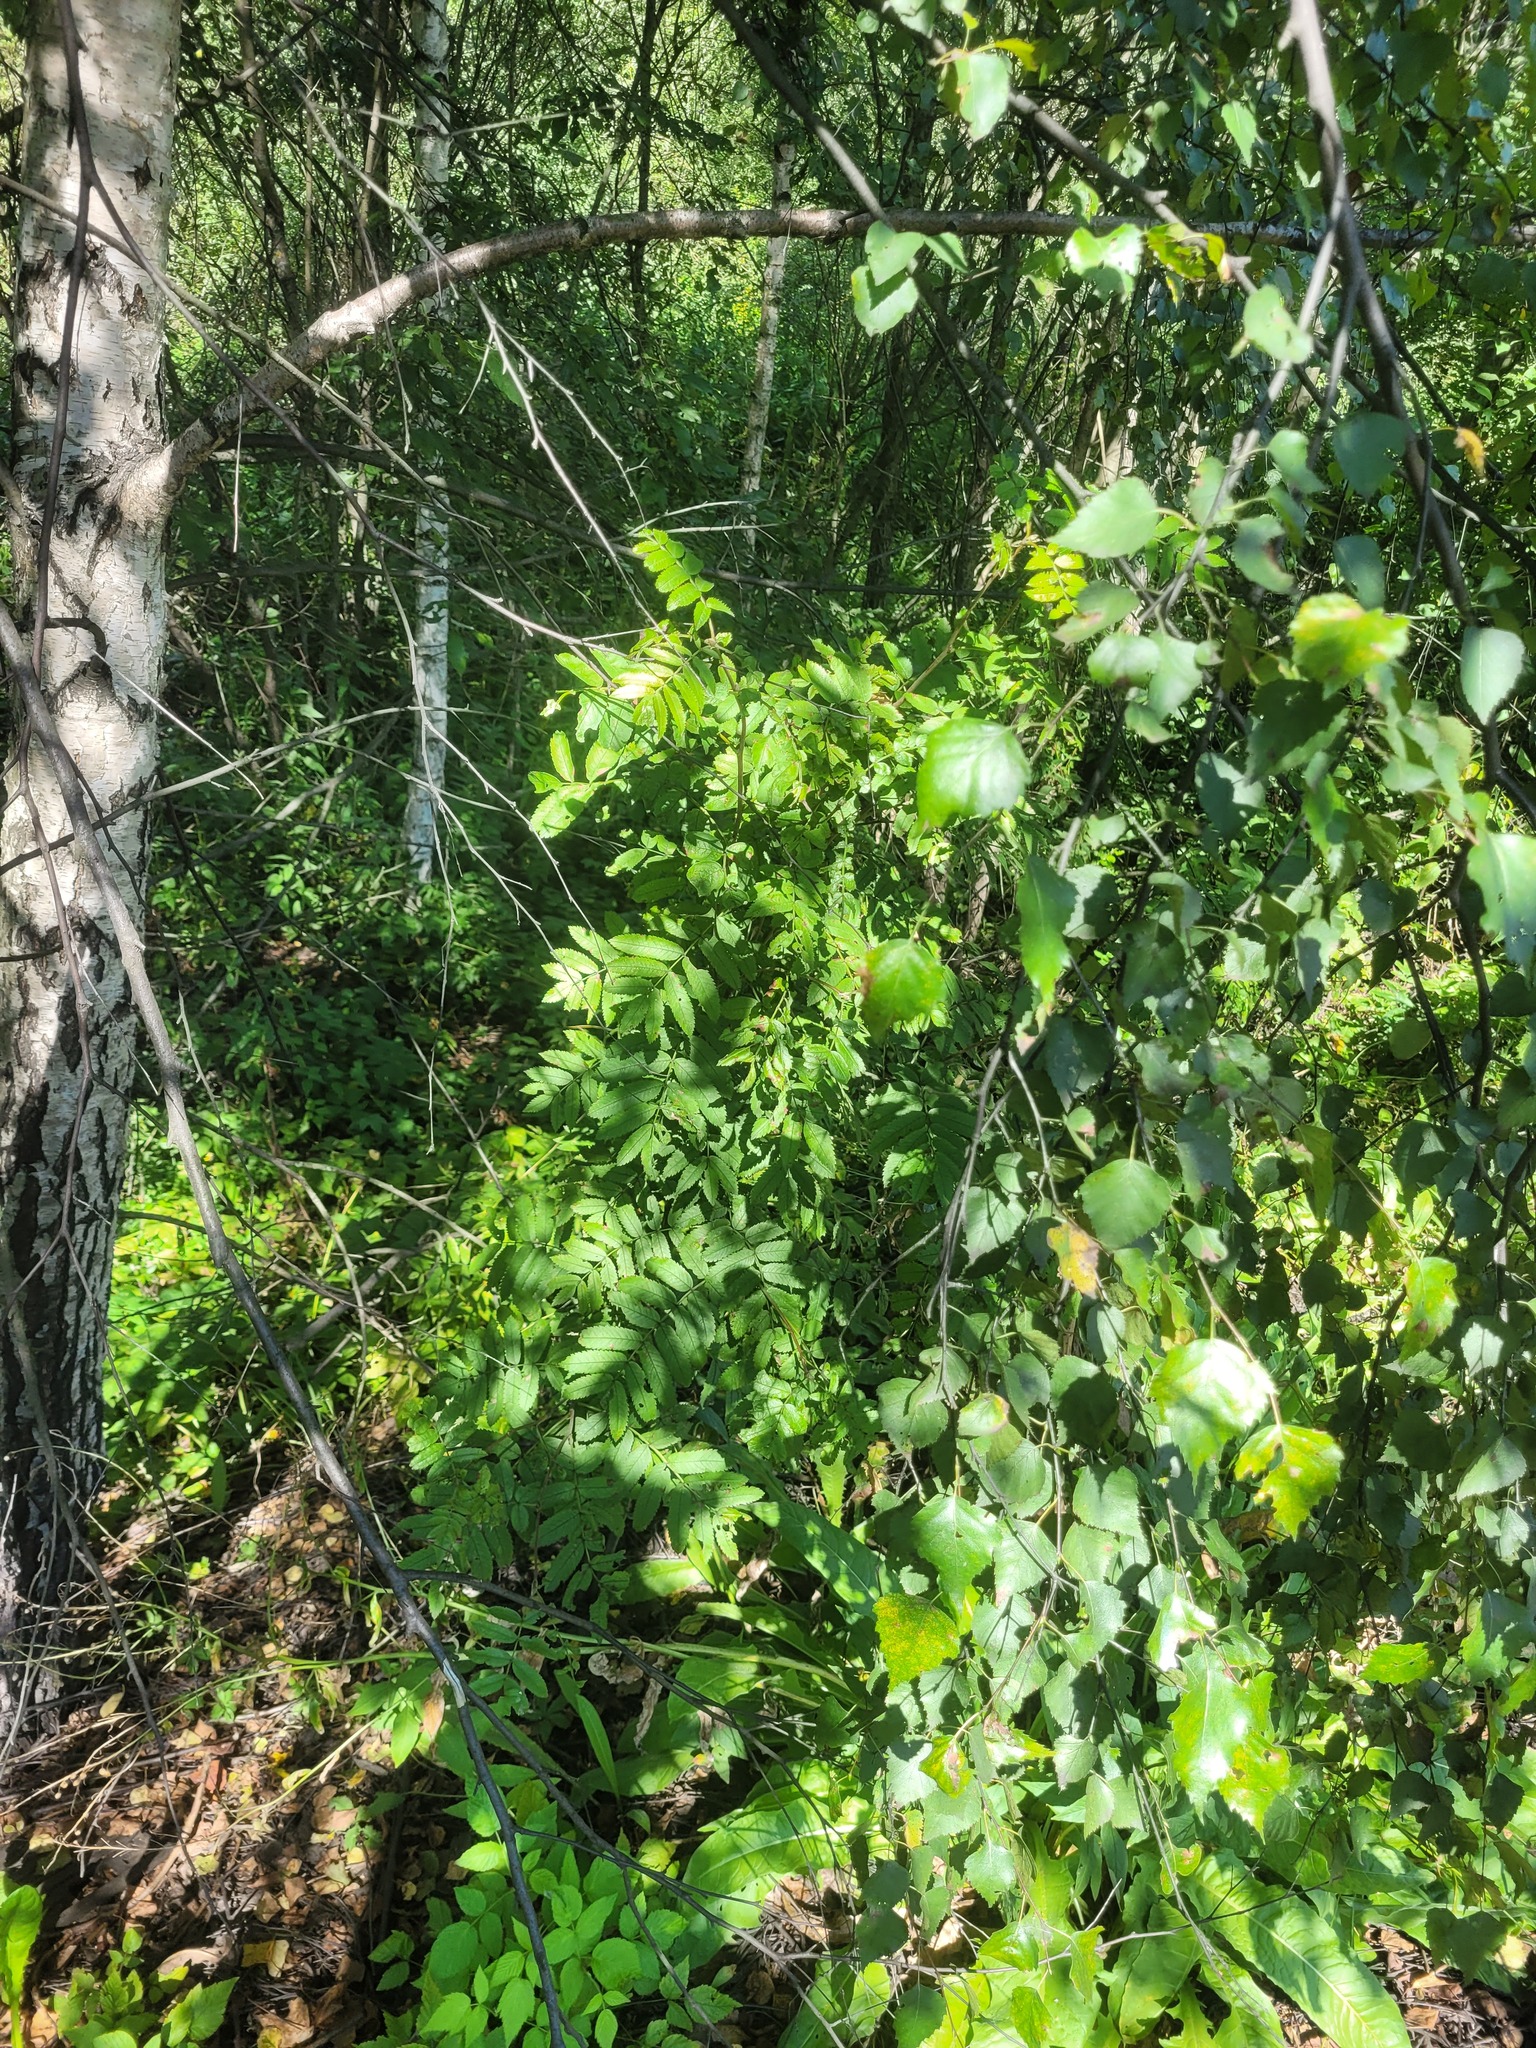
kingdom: Plantae
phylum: Tracheophyta
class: Magnoliopsida
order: Rosales
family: Rosaceae
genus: Sorbus
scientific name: Sorbus aucuparia
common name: Rowan
